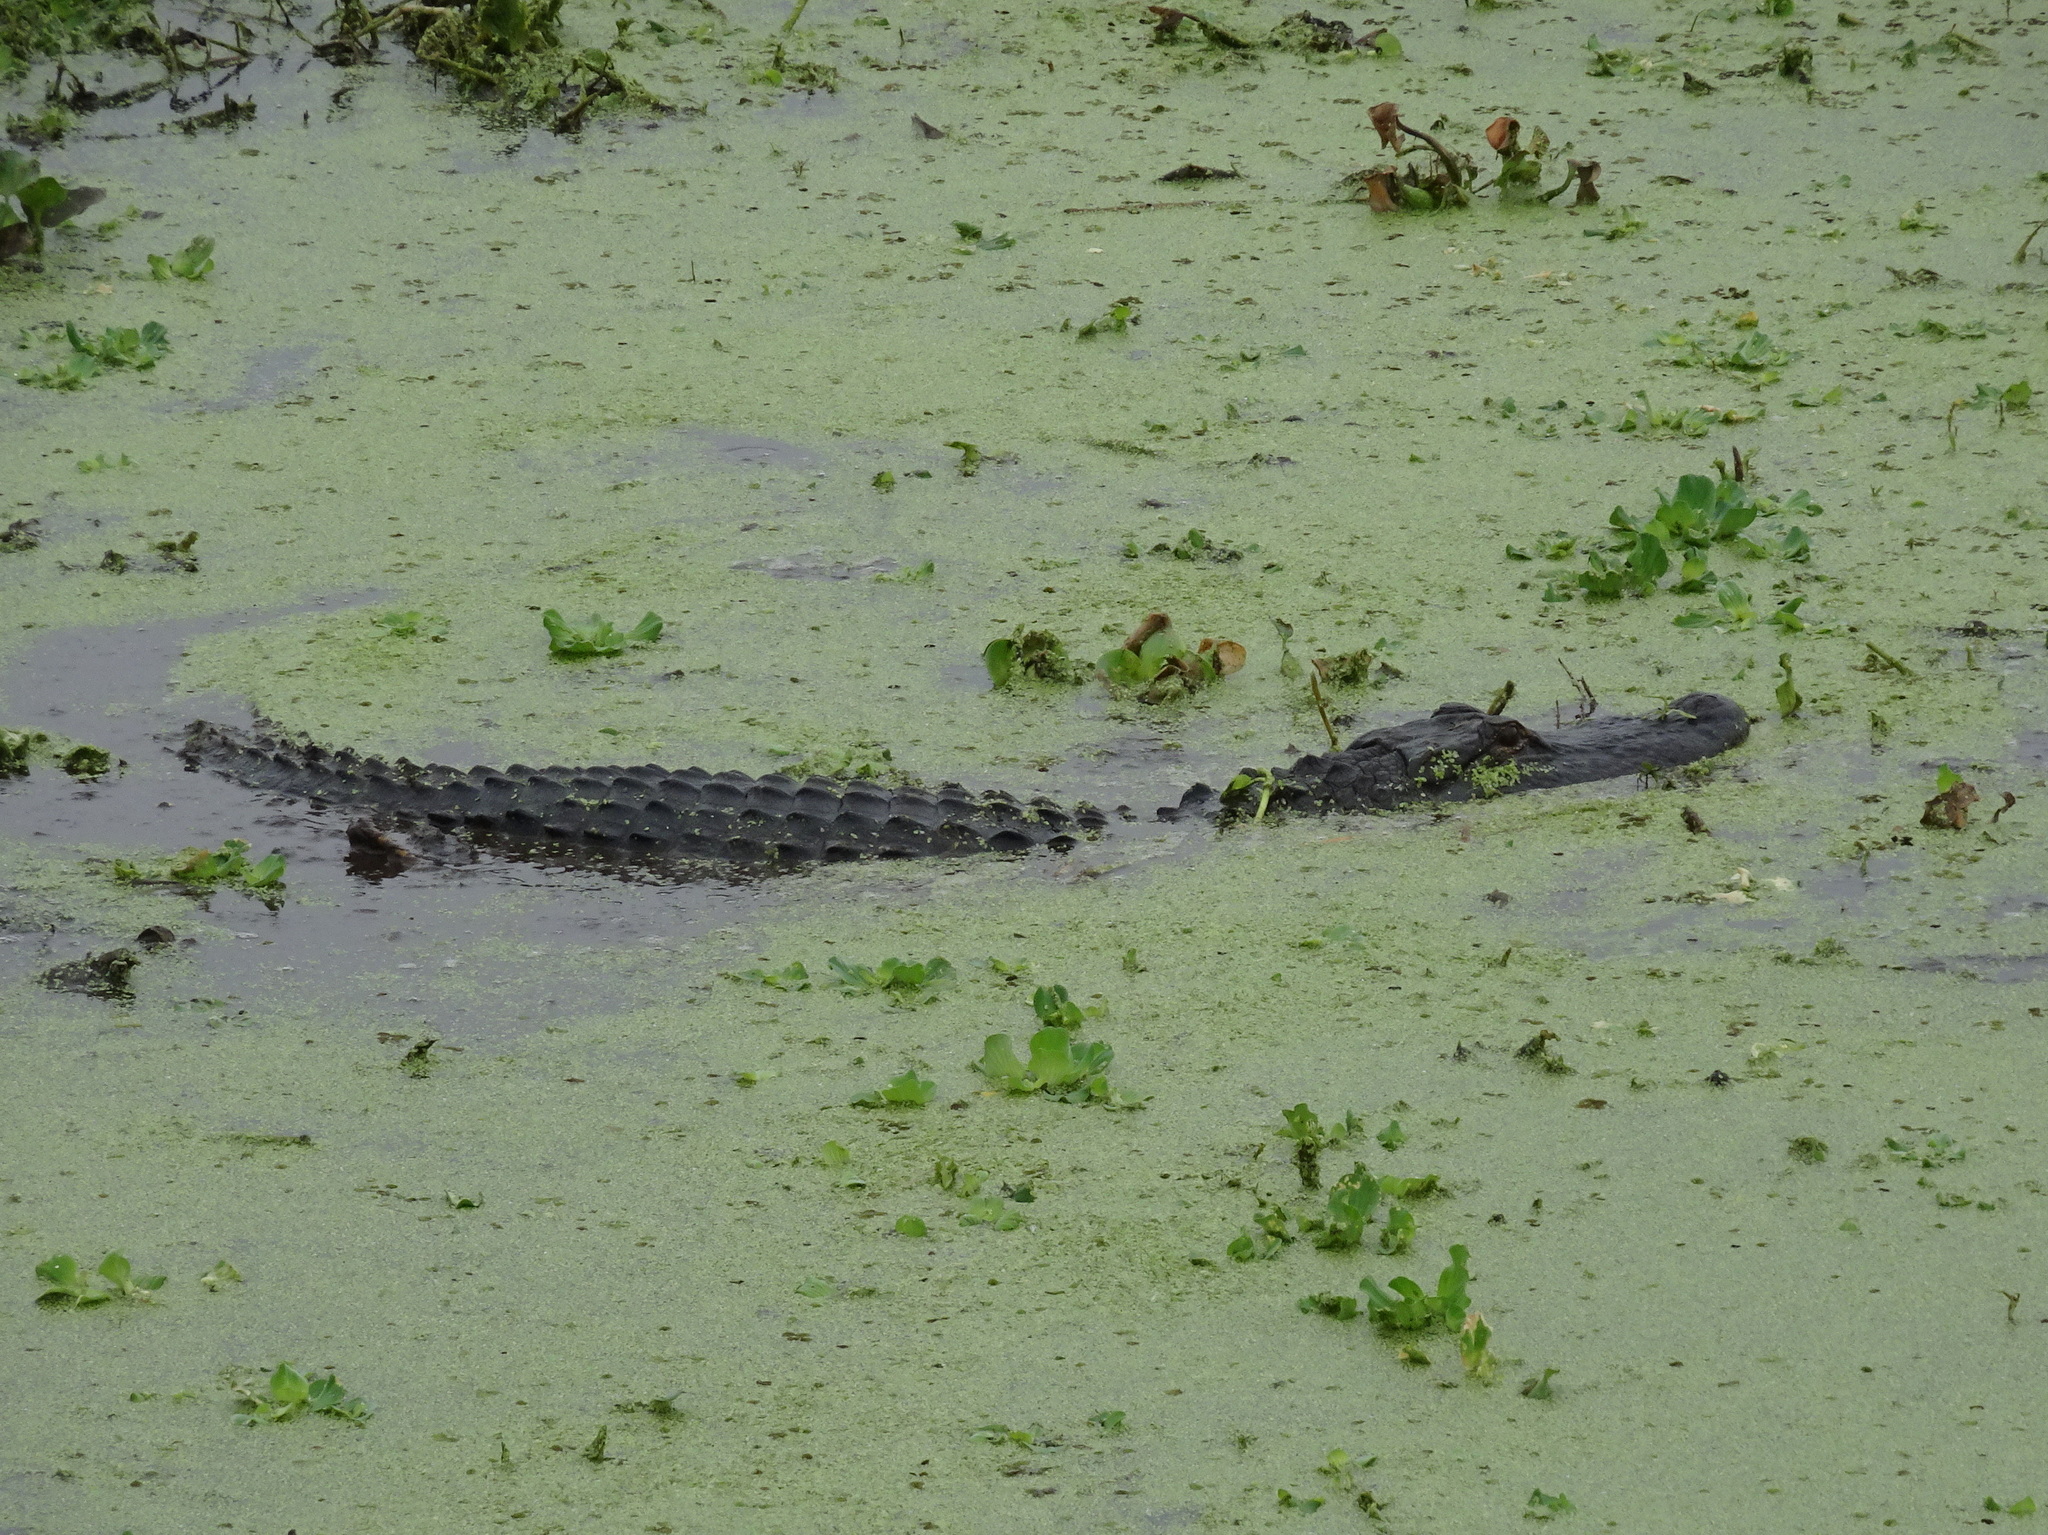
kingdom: Animalia
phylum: Chordata
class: Crocodylia
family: Alligatoridae
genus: Alligator
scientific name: Alligator mississippiensis
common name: American alligator
